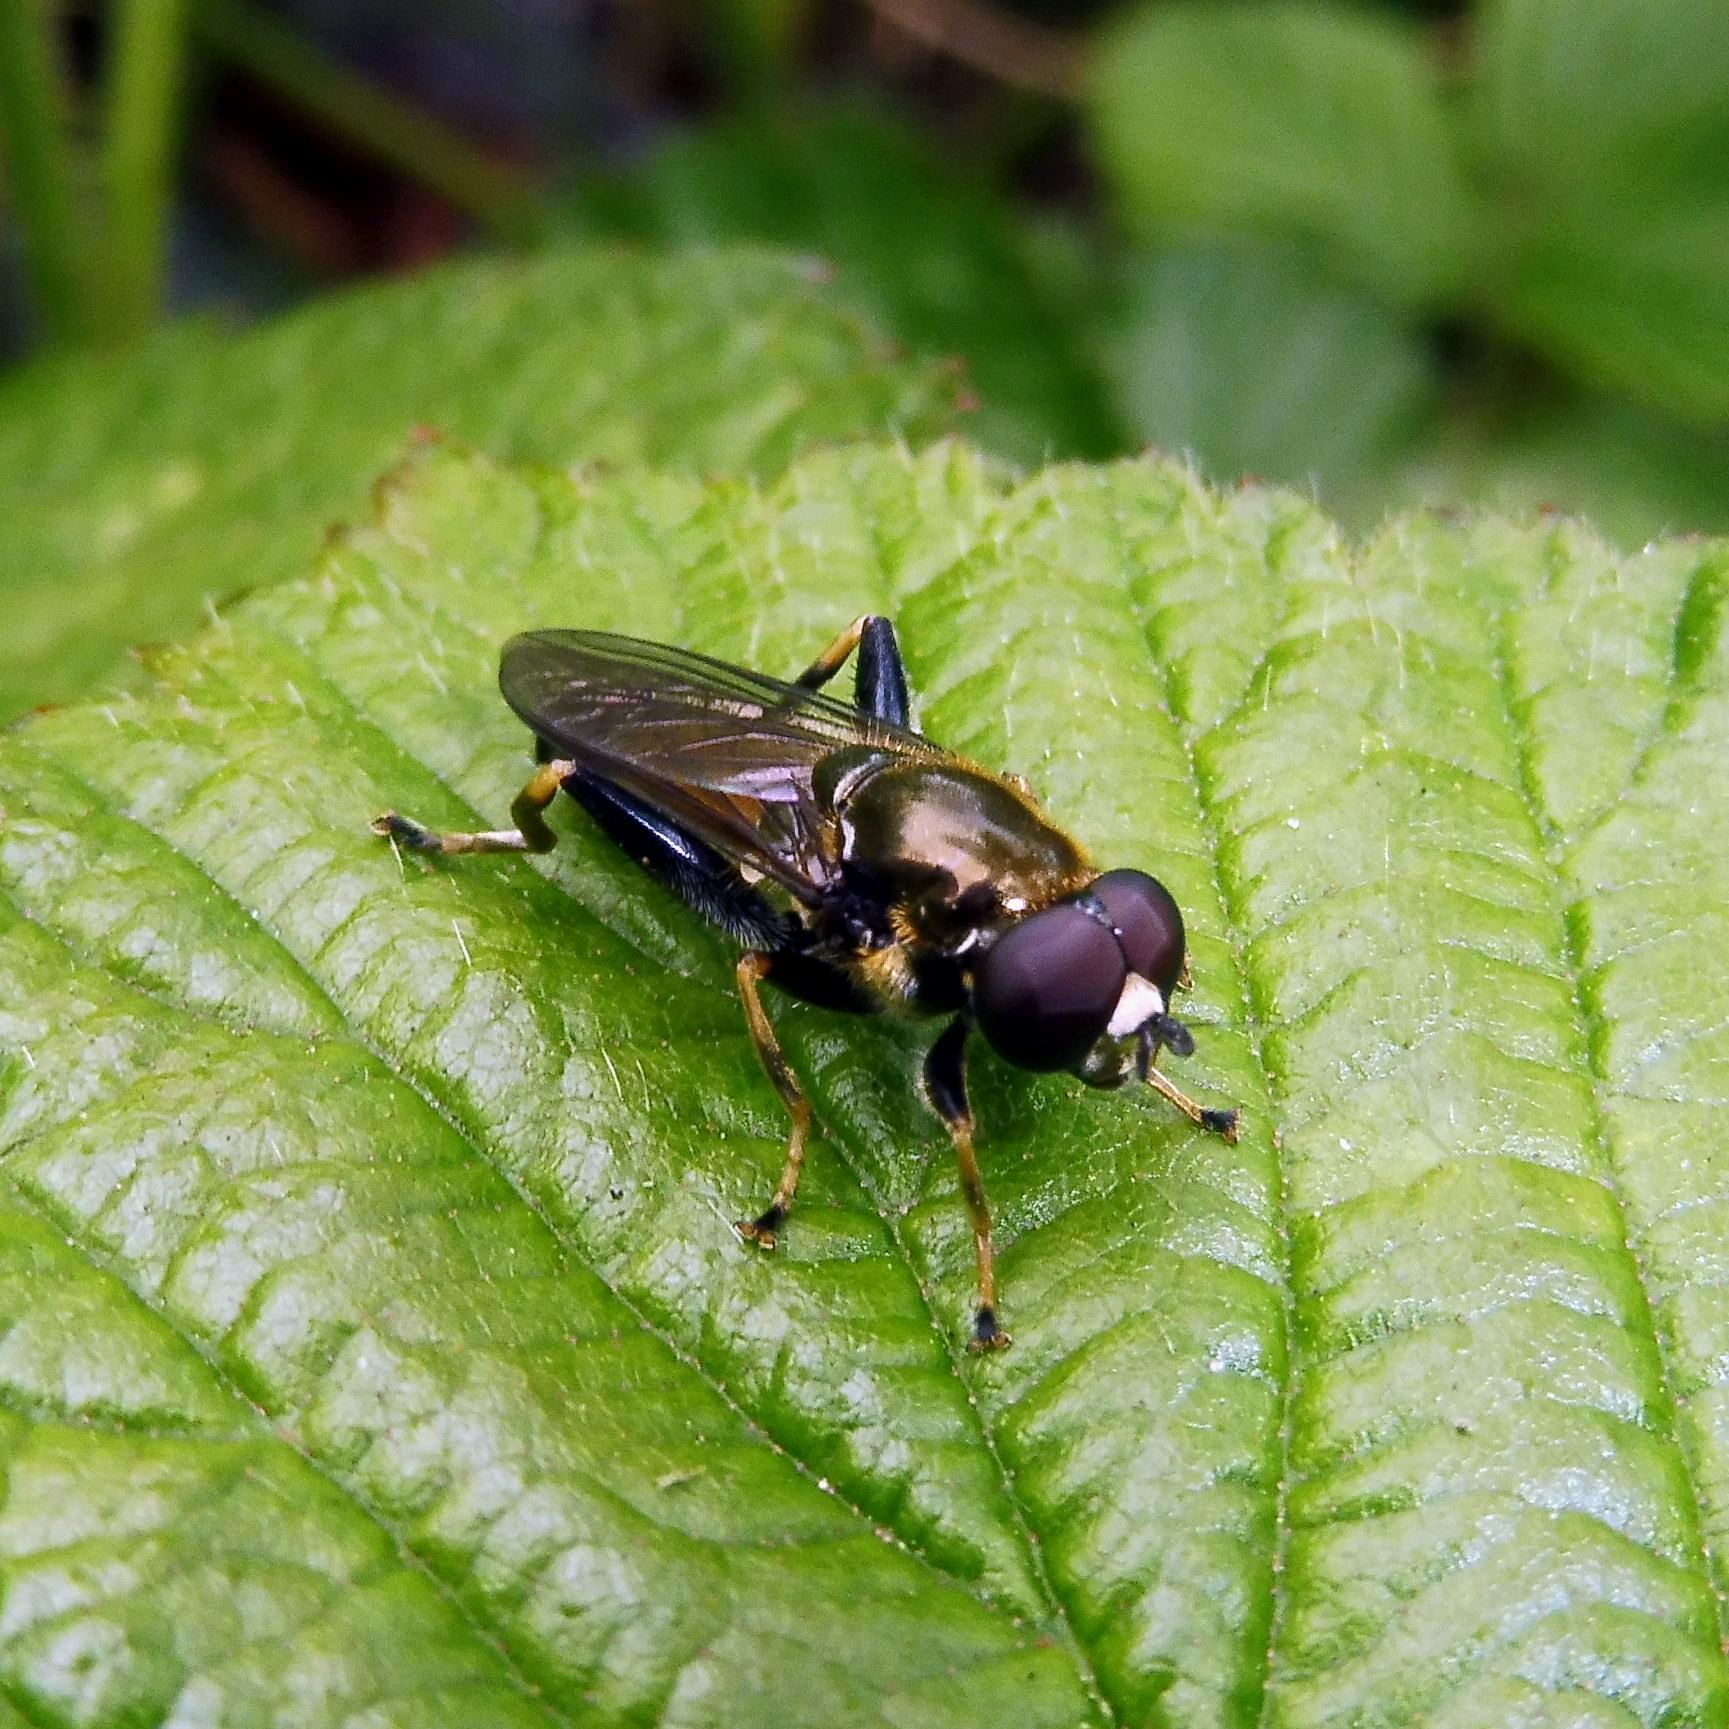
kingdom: Animalia
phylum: Arthropoda
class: Insecta
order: Diptera
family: Syrphidae
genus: Xylota
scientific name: Xylota segnis
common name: Brown-toed forest fly
